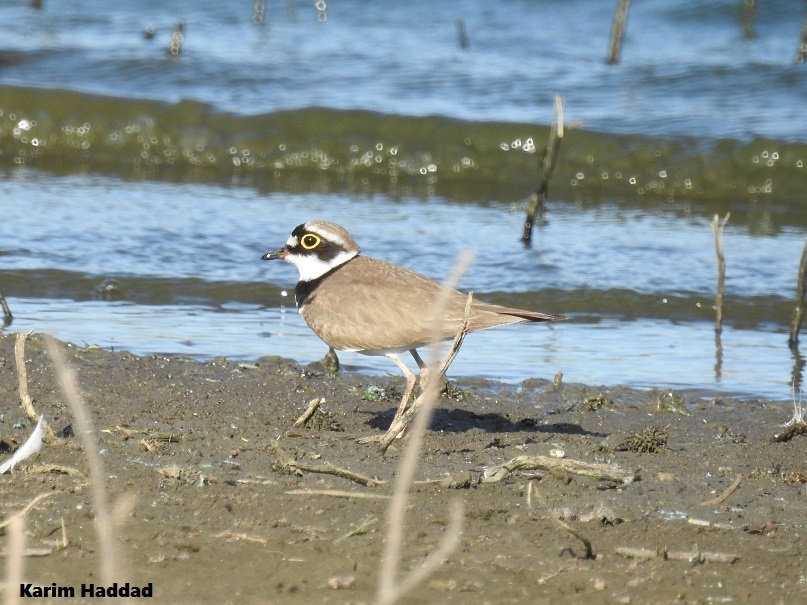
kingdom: Animalia
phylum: Chordata
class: Aves
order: Charadriiformes
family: Charadriidae
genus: Charadrius
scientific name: Charadrius dubius
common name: Little ringed plover
